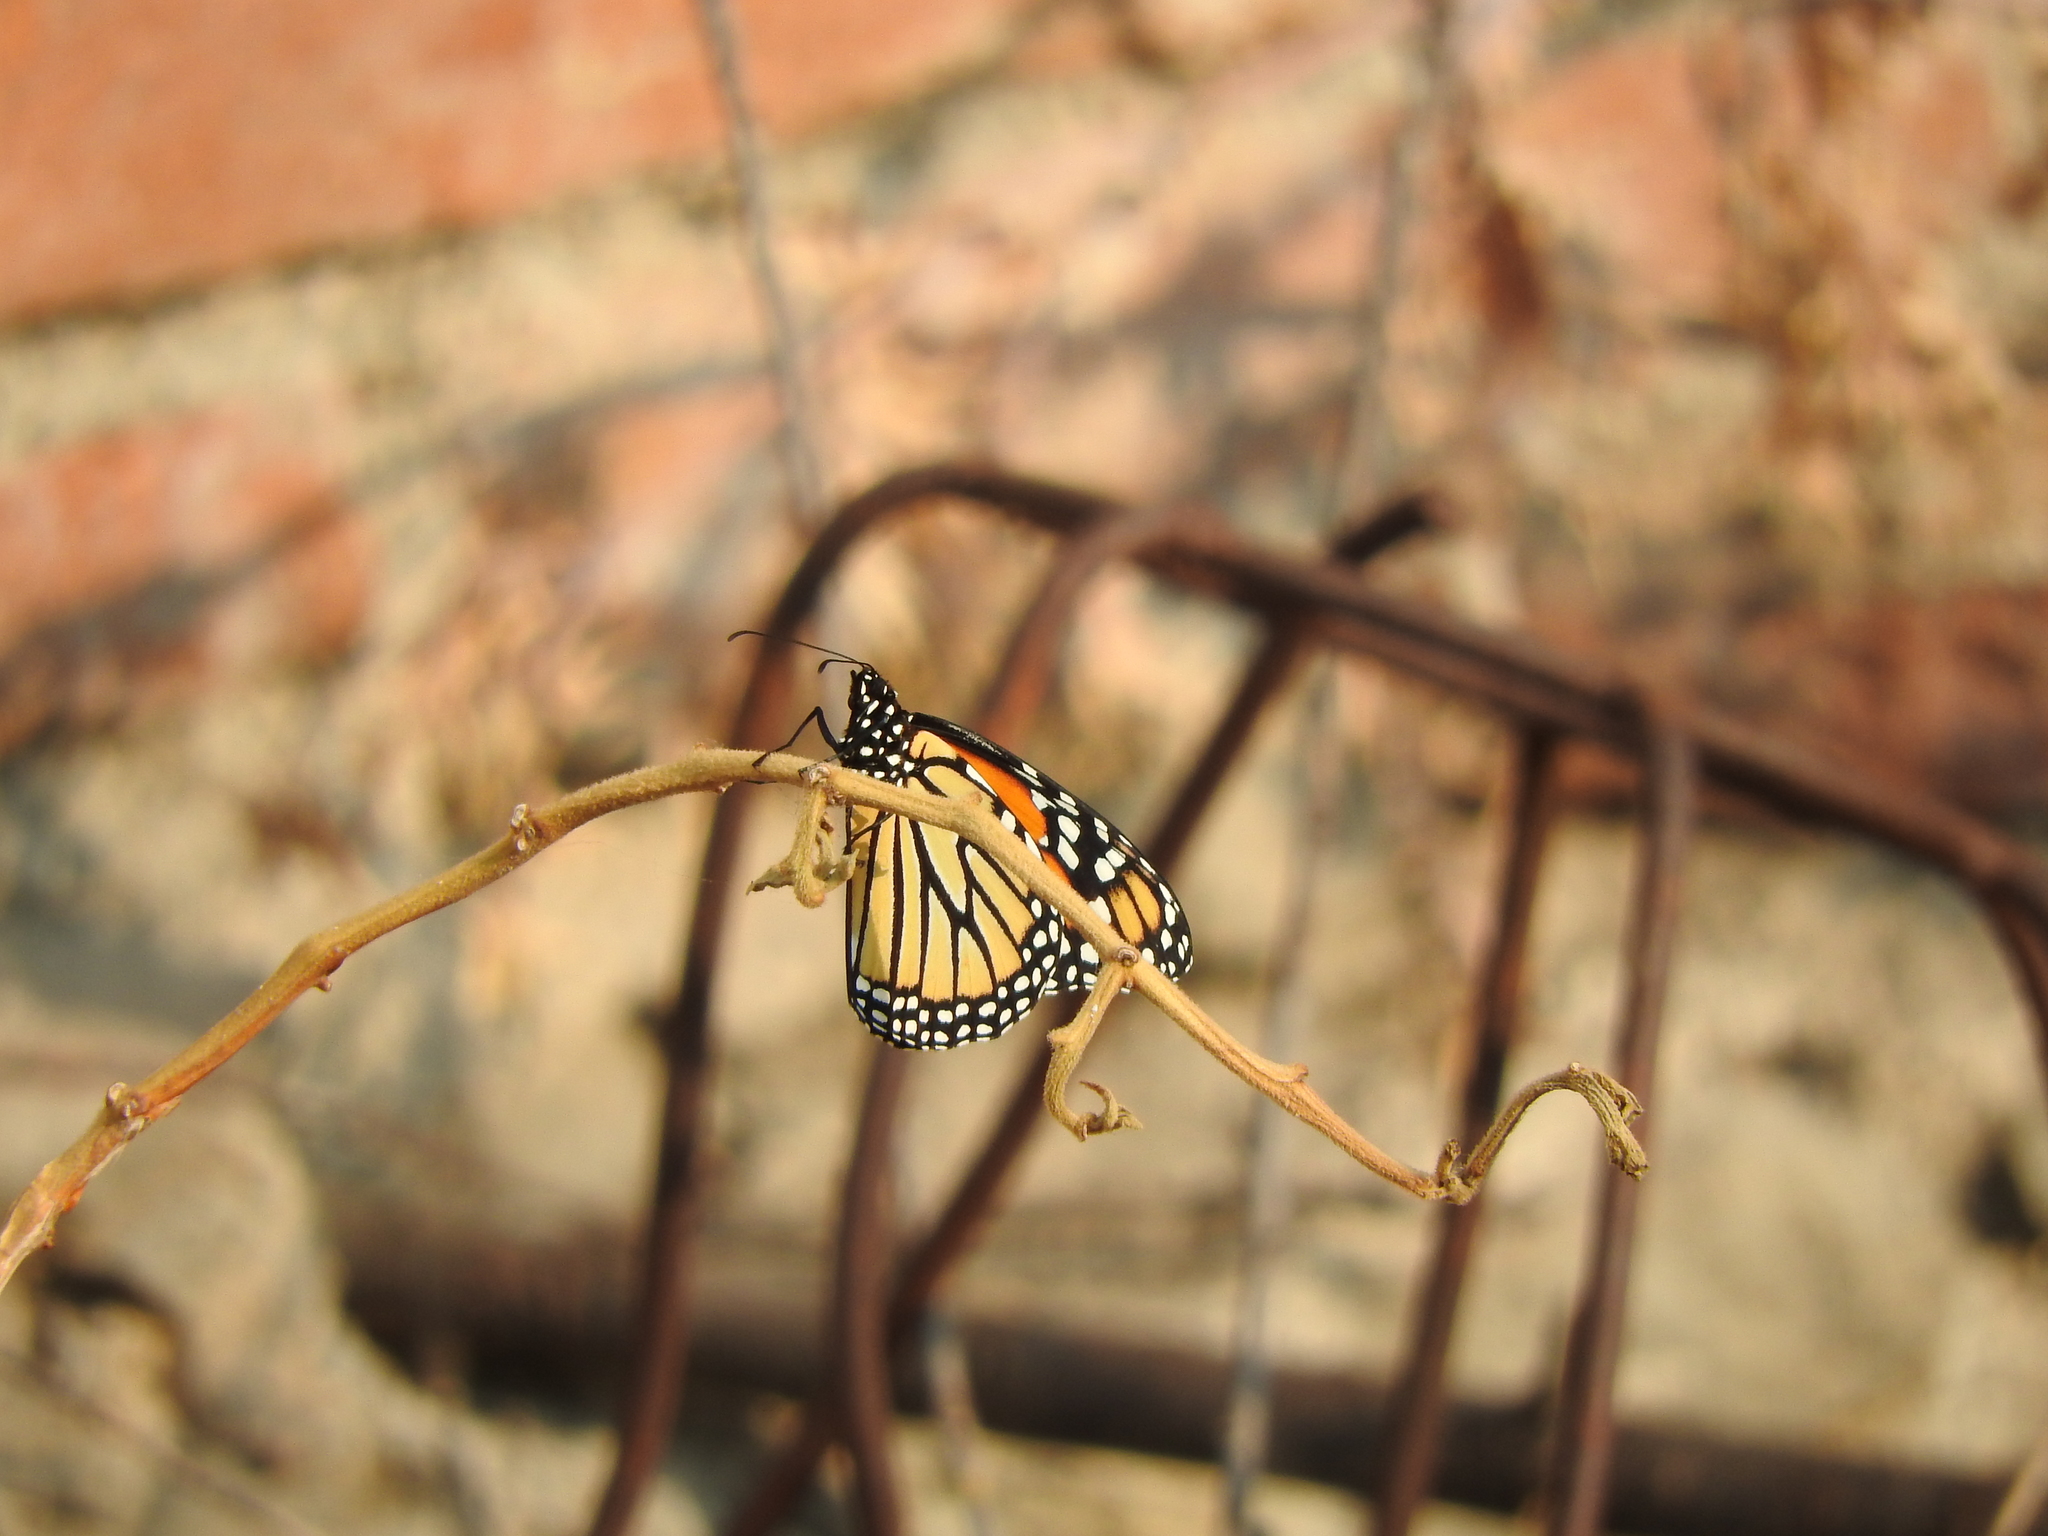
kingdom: Animalia
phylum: Arthropoda
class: Insecta
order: Lepidoptera
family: Nymphalidae
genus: Danaus
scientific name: Danaus plexippus
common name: Monarch
